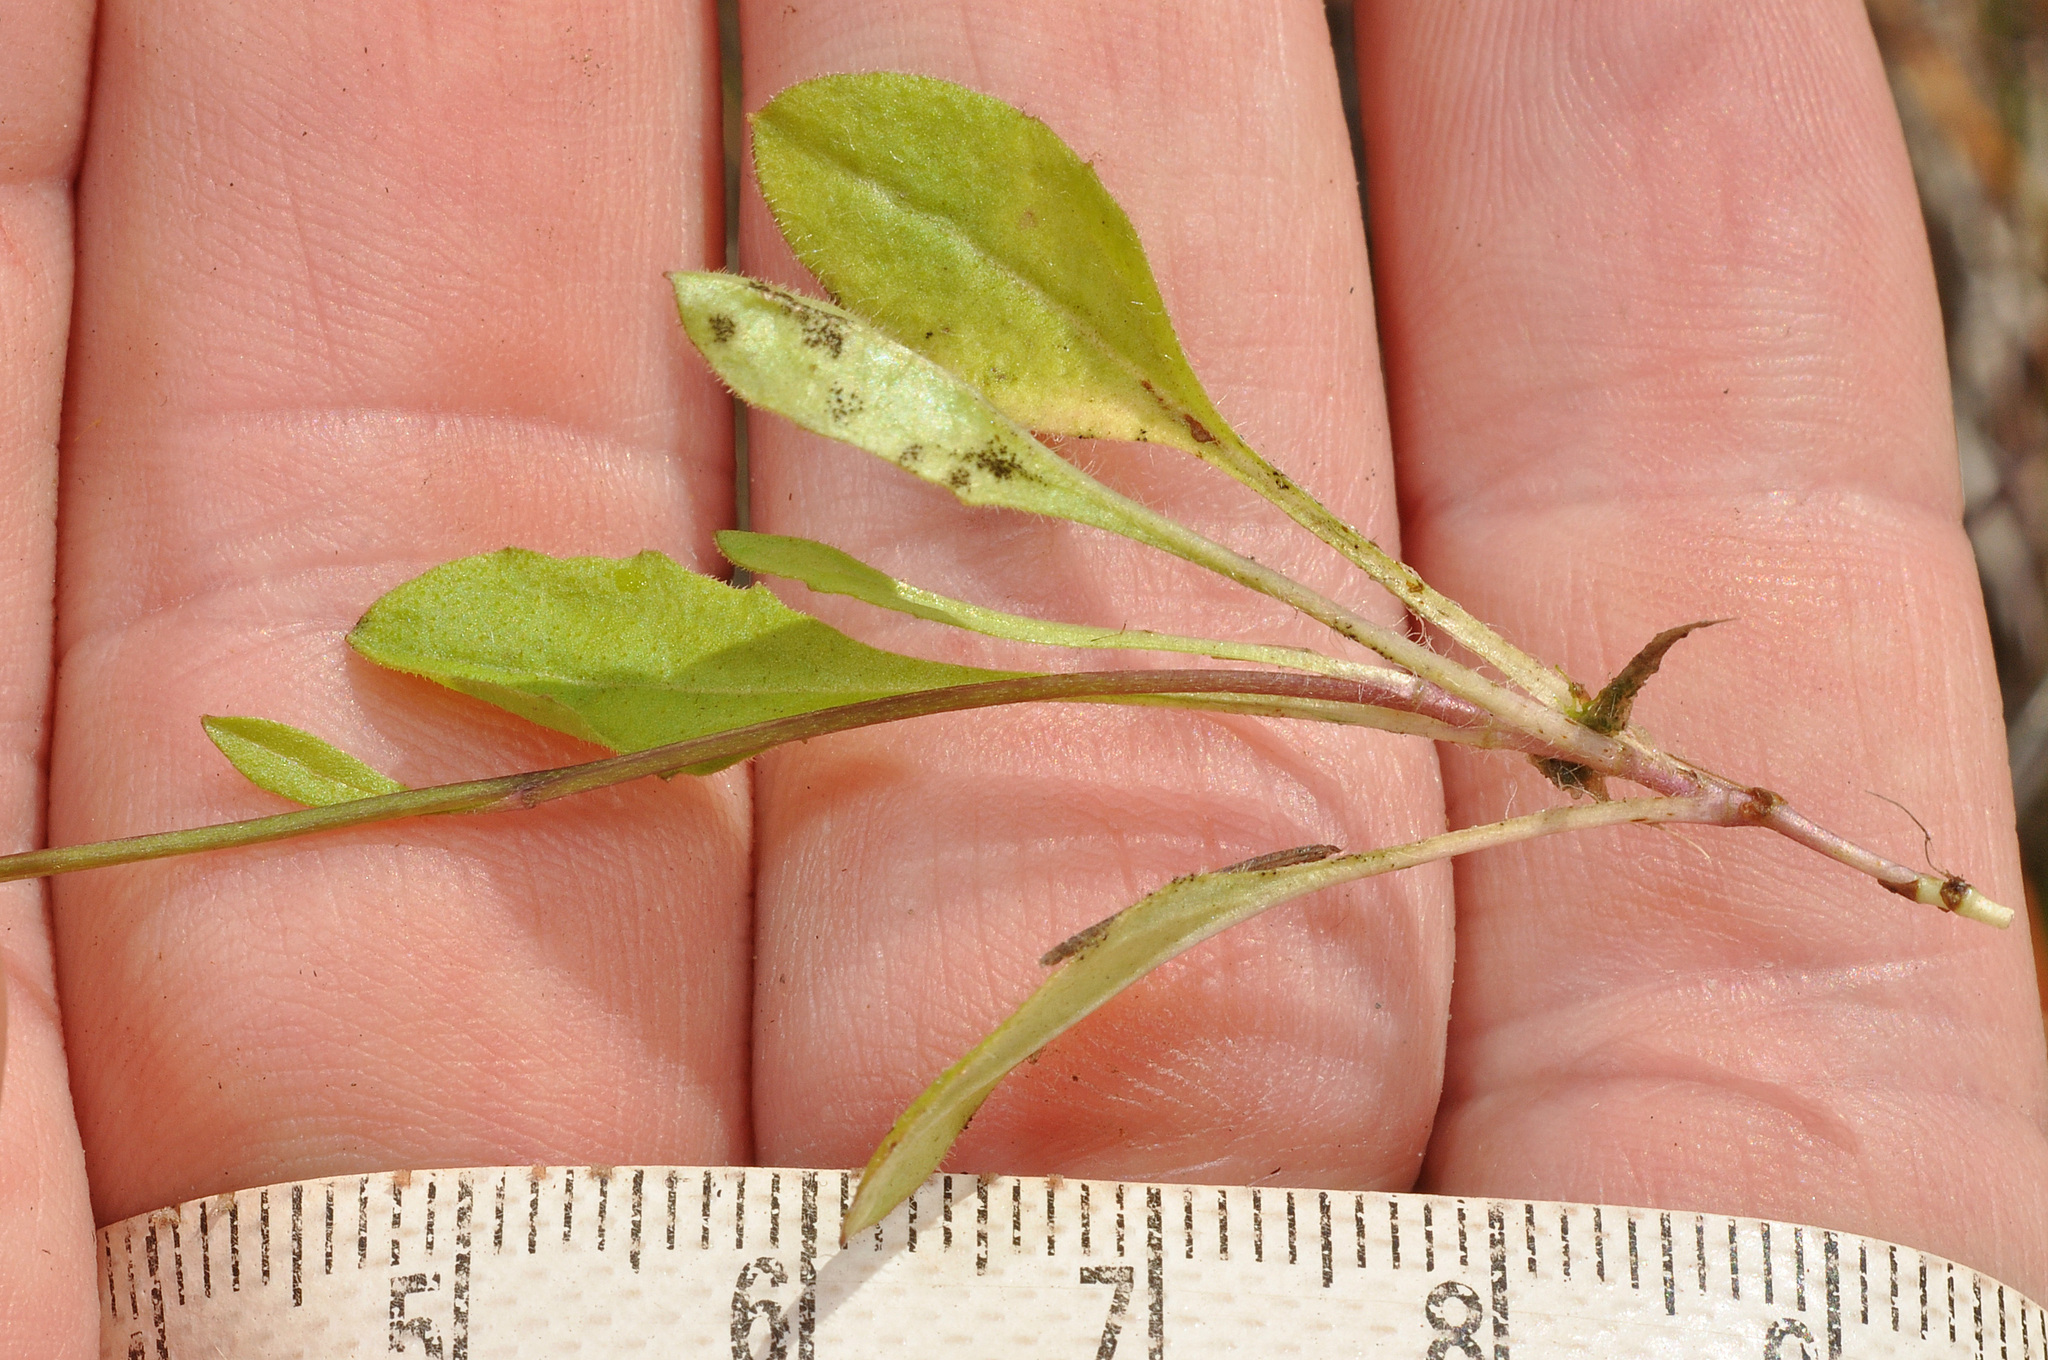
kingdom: Plantae
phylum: Tracheophyta
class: Magnoliopsida
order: Asterales
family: Asteraceae
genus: Lagenophora
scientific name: Lagenophora schmidiae ter
